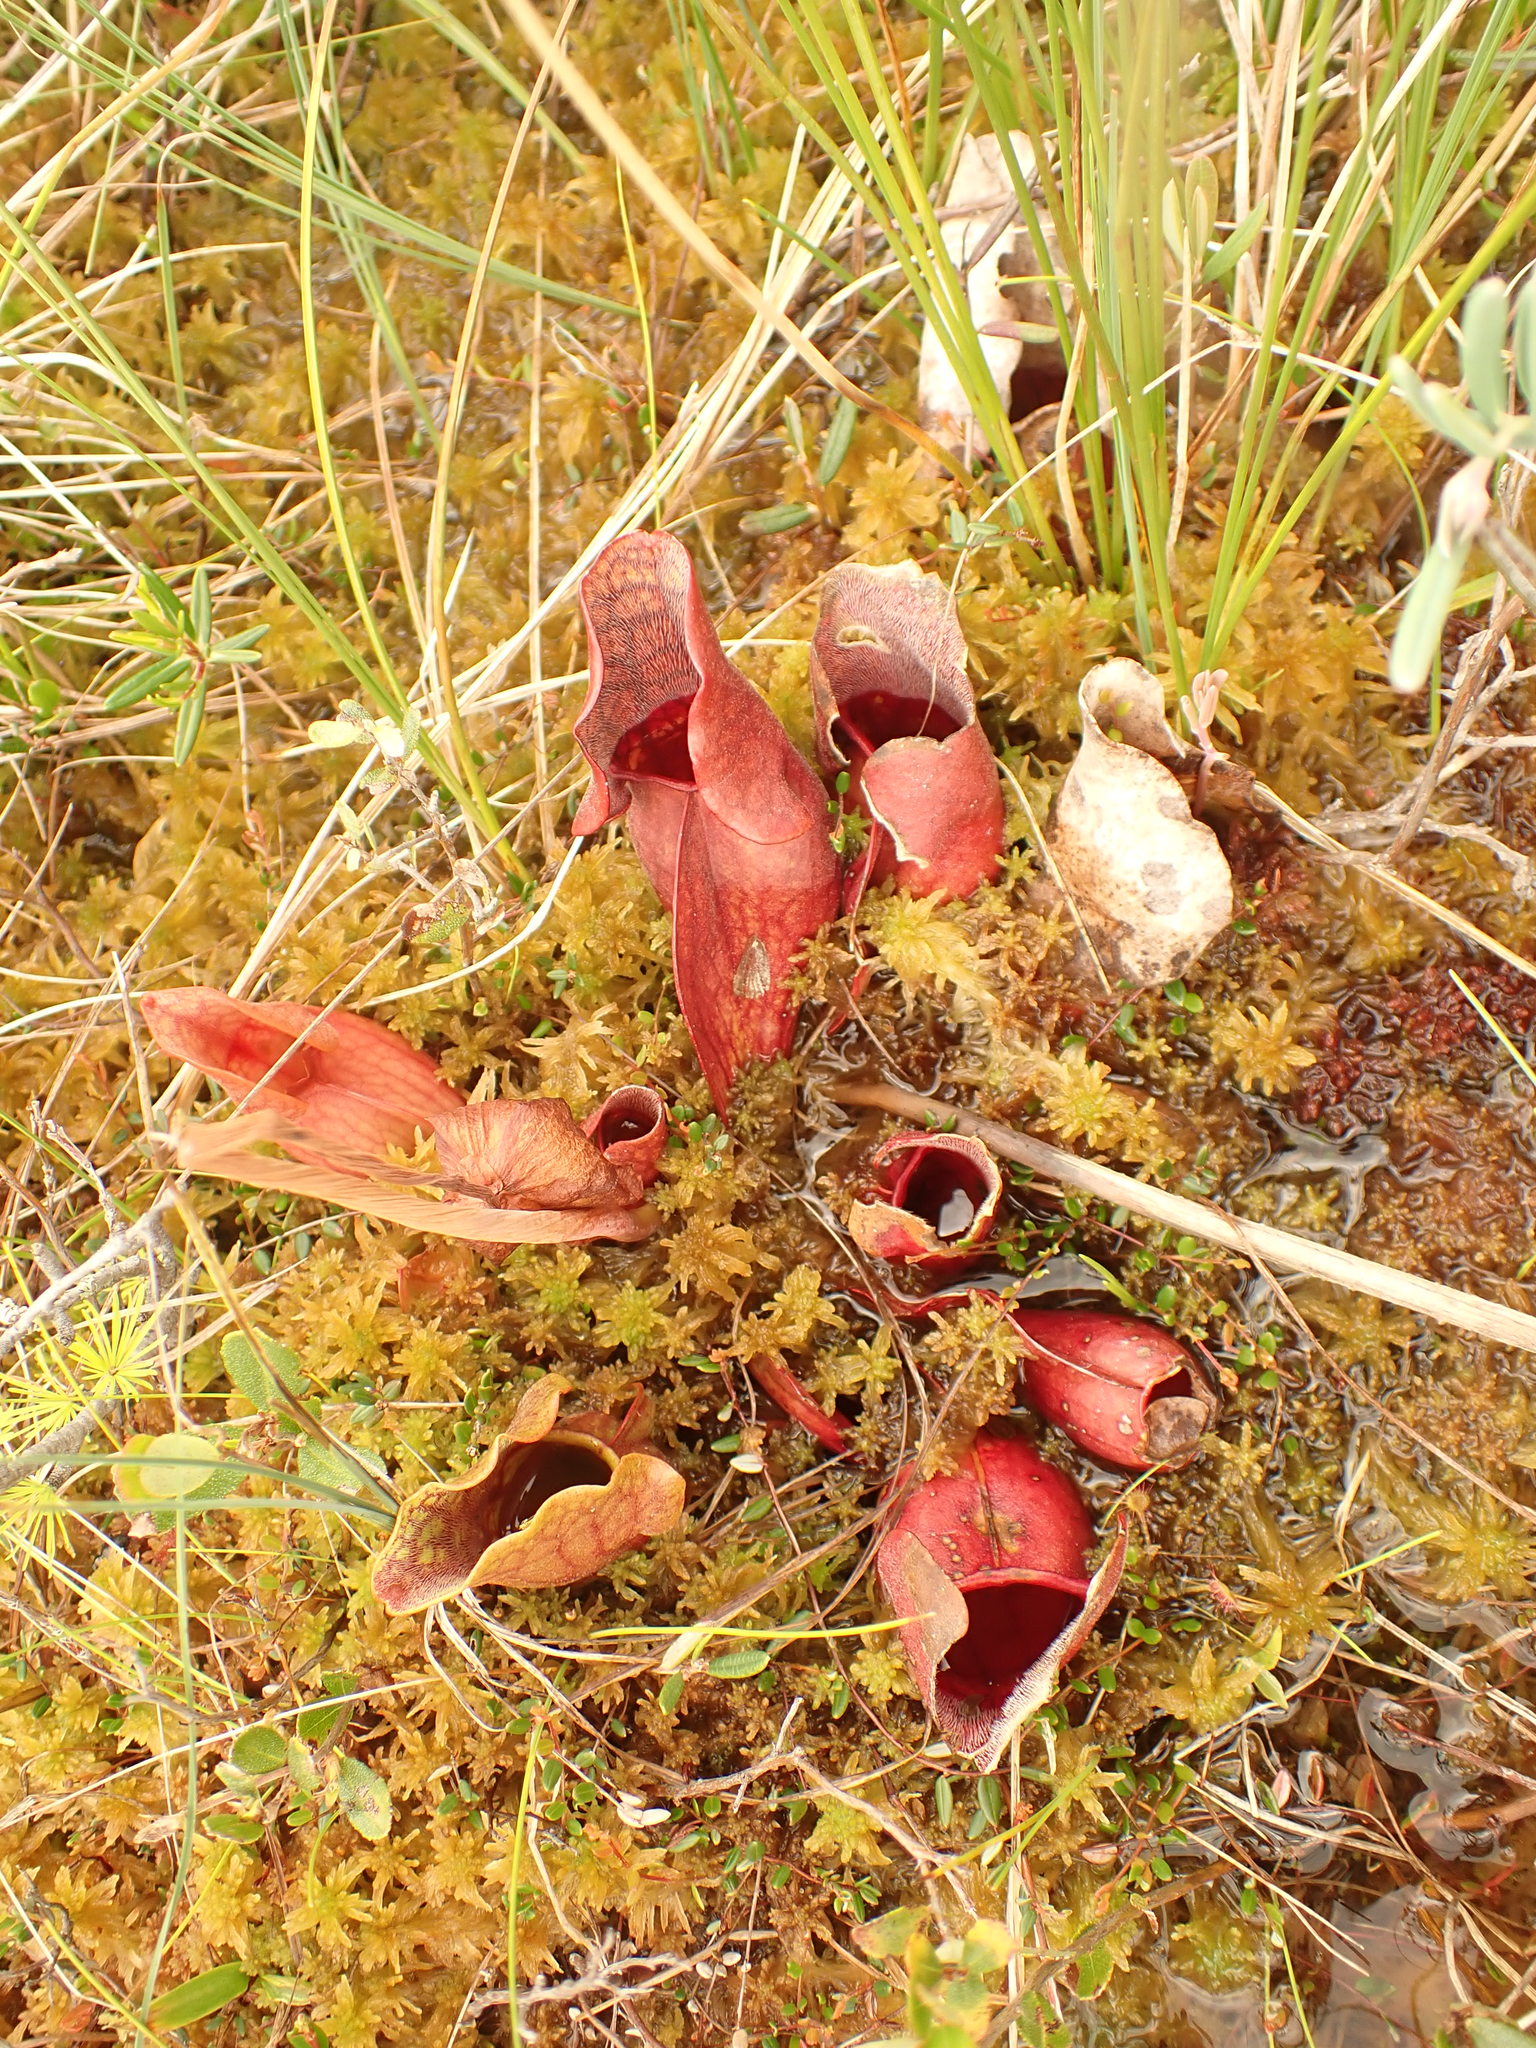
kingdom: Plantae
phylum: Tracheophyta
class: Magnoliopsida
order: Ericales
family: Sarraceniaceae
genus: Sarracenia
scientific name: Sarracenia purpurea
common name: Pitcherplant
